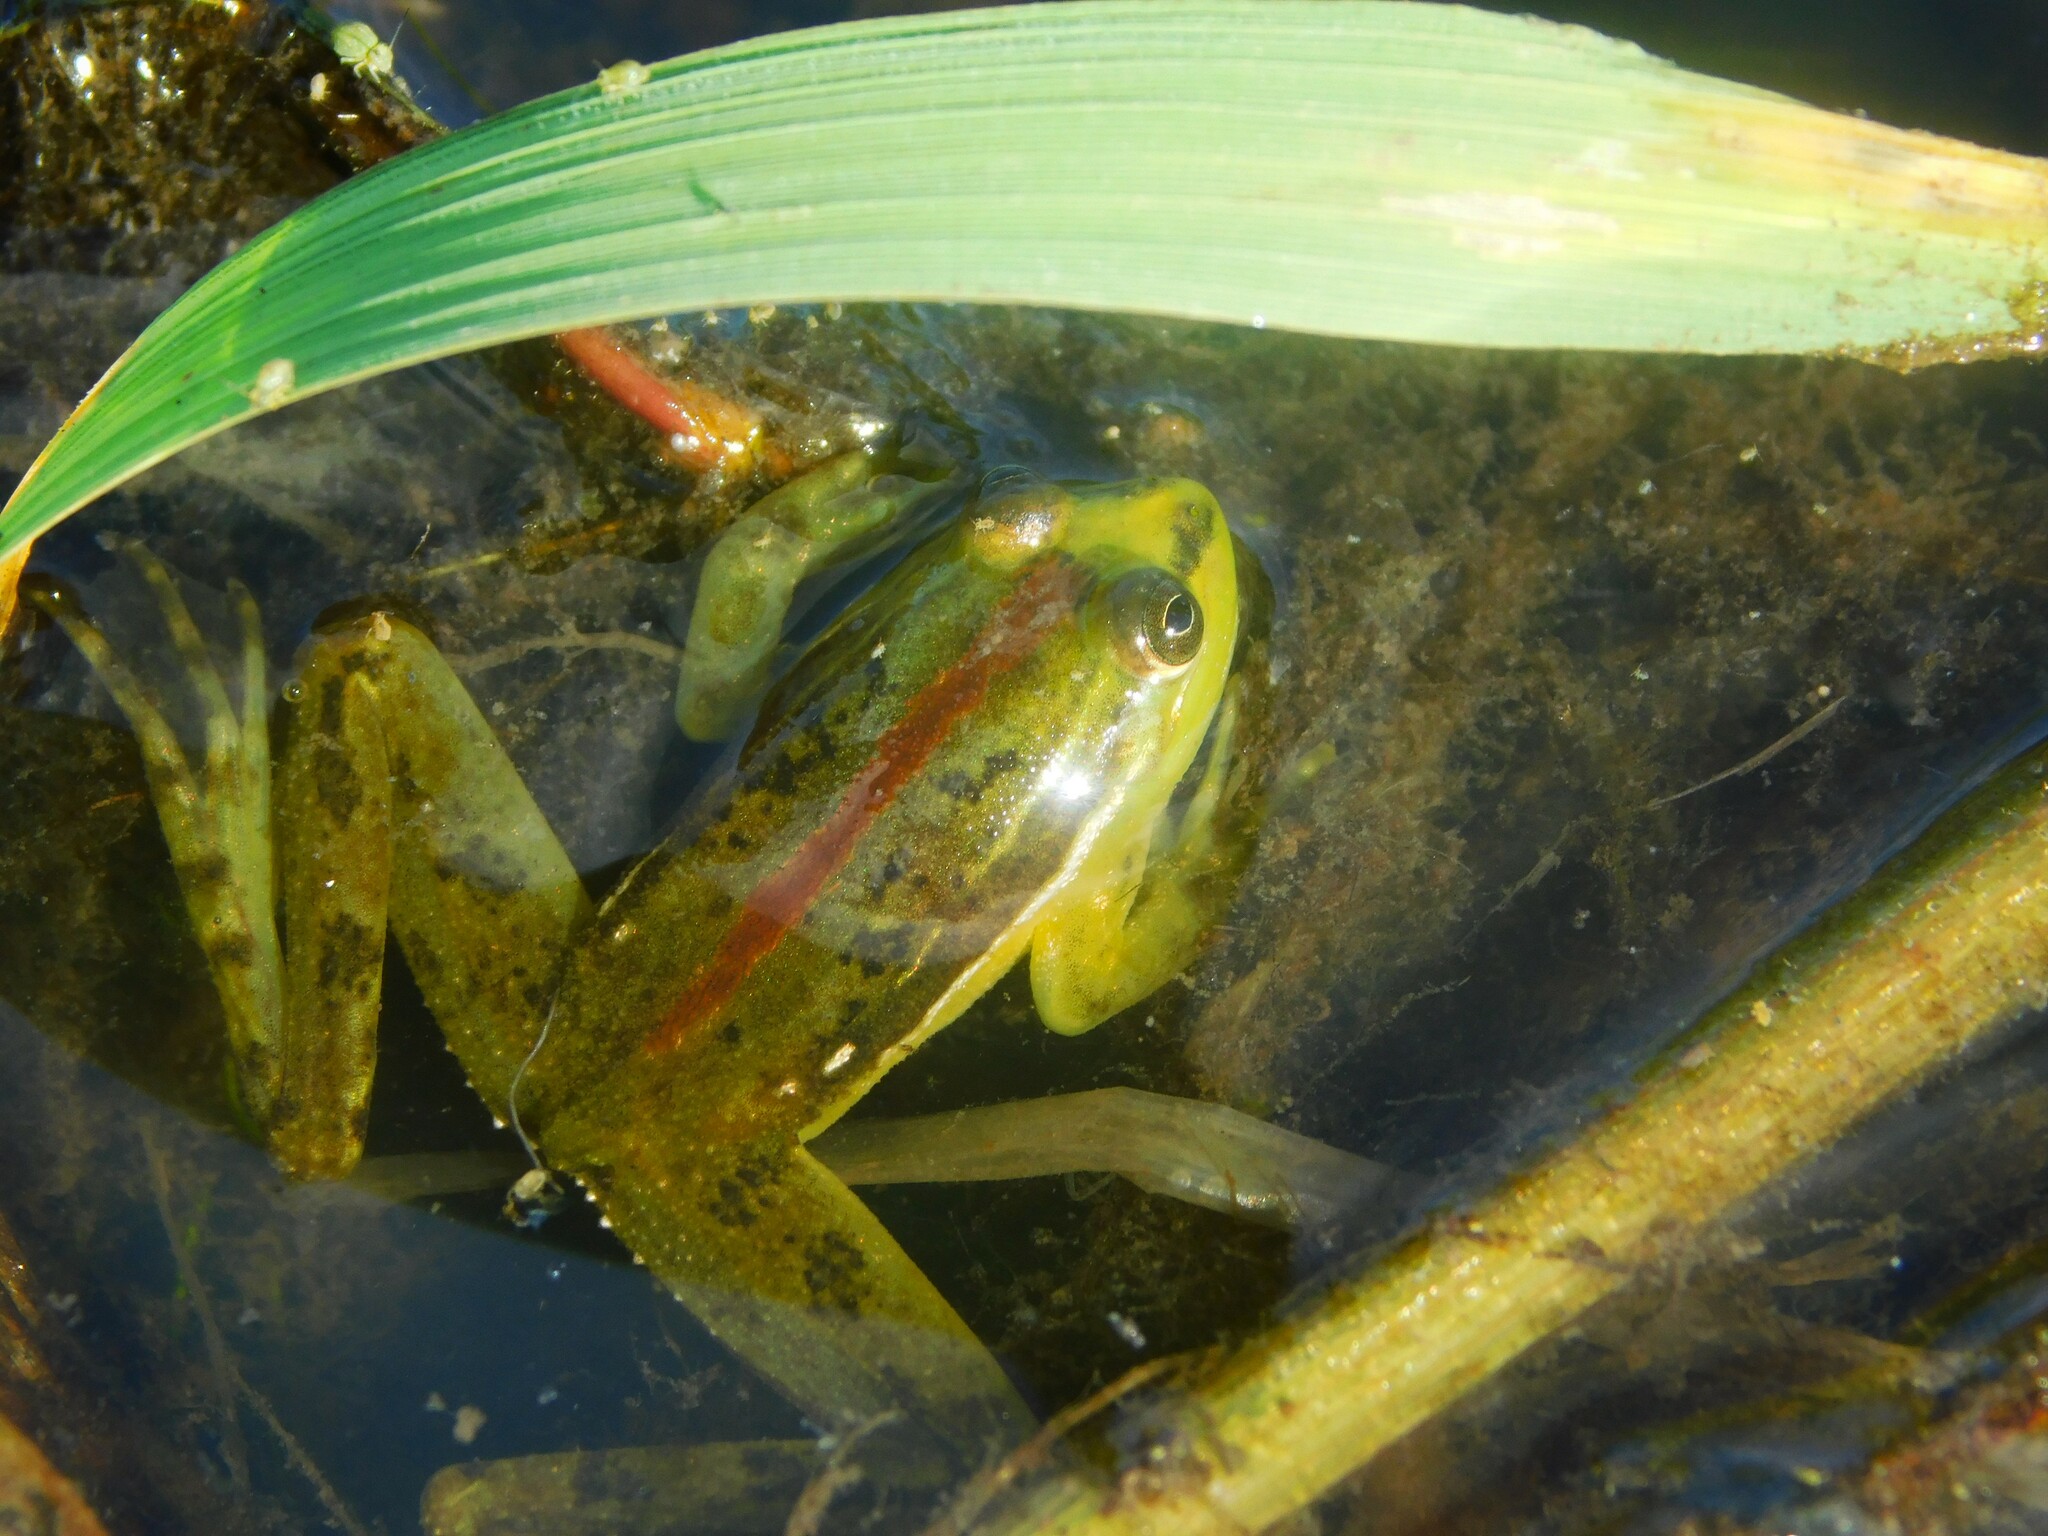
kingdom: Animalia
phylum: Chordata
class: Amphibia
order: Anura
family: Hylidae
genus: Lysapsus
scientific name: Lysapsus limellum
